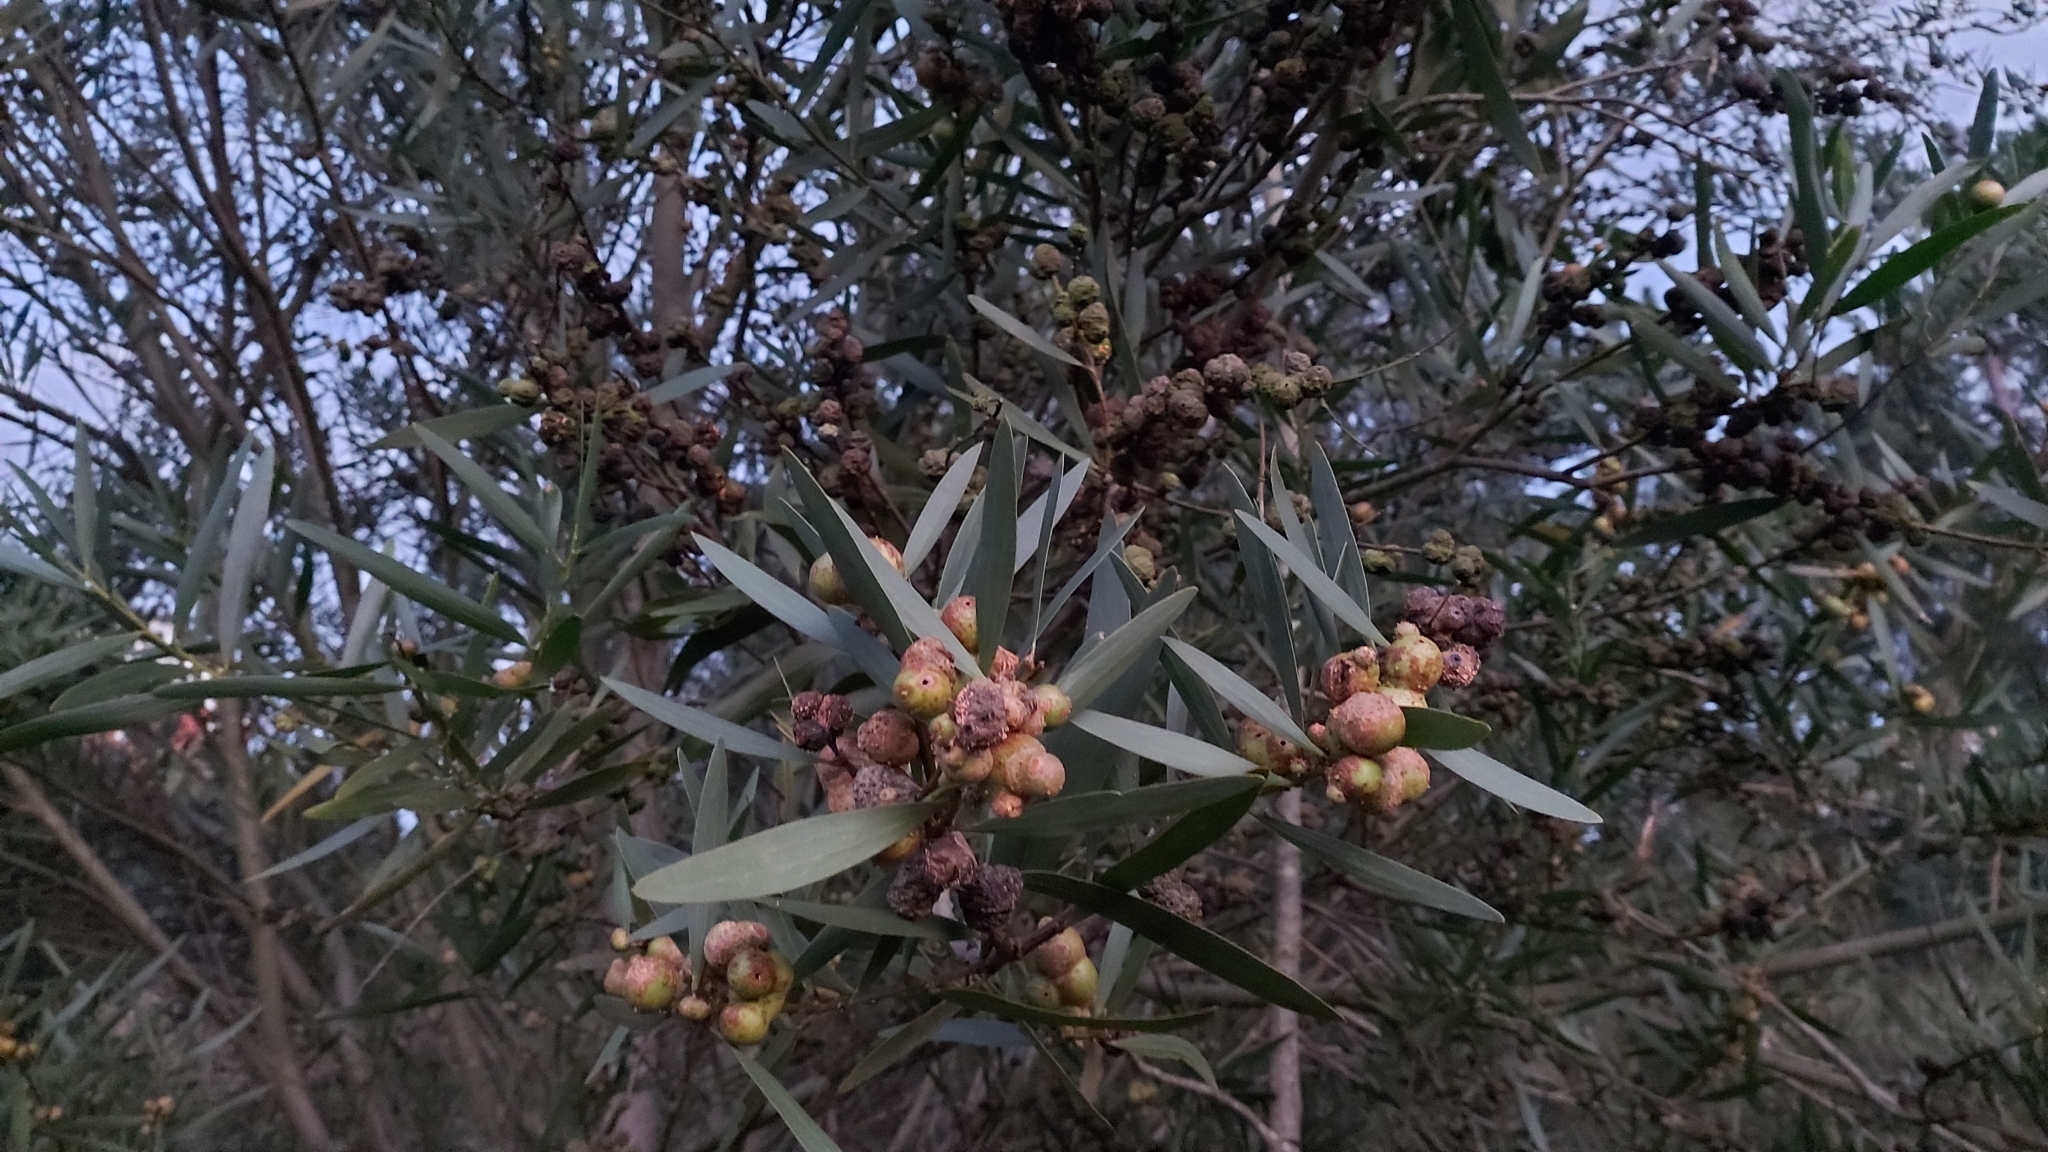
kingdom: Animalia
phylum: Arthropoda
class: Insecta
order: Hymenoptera
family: Pteromalidae
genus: Trichilogaster
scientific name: Trichilogaster acaciaelongifoliae
